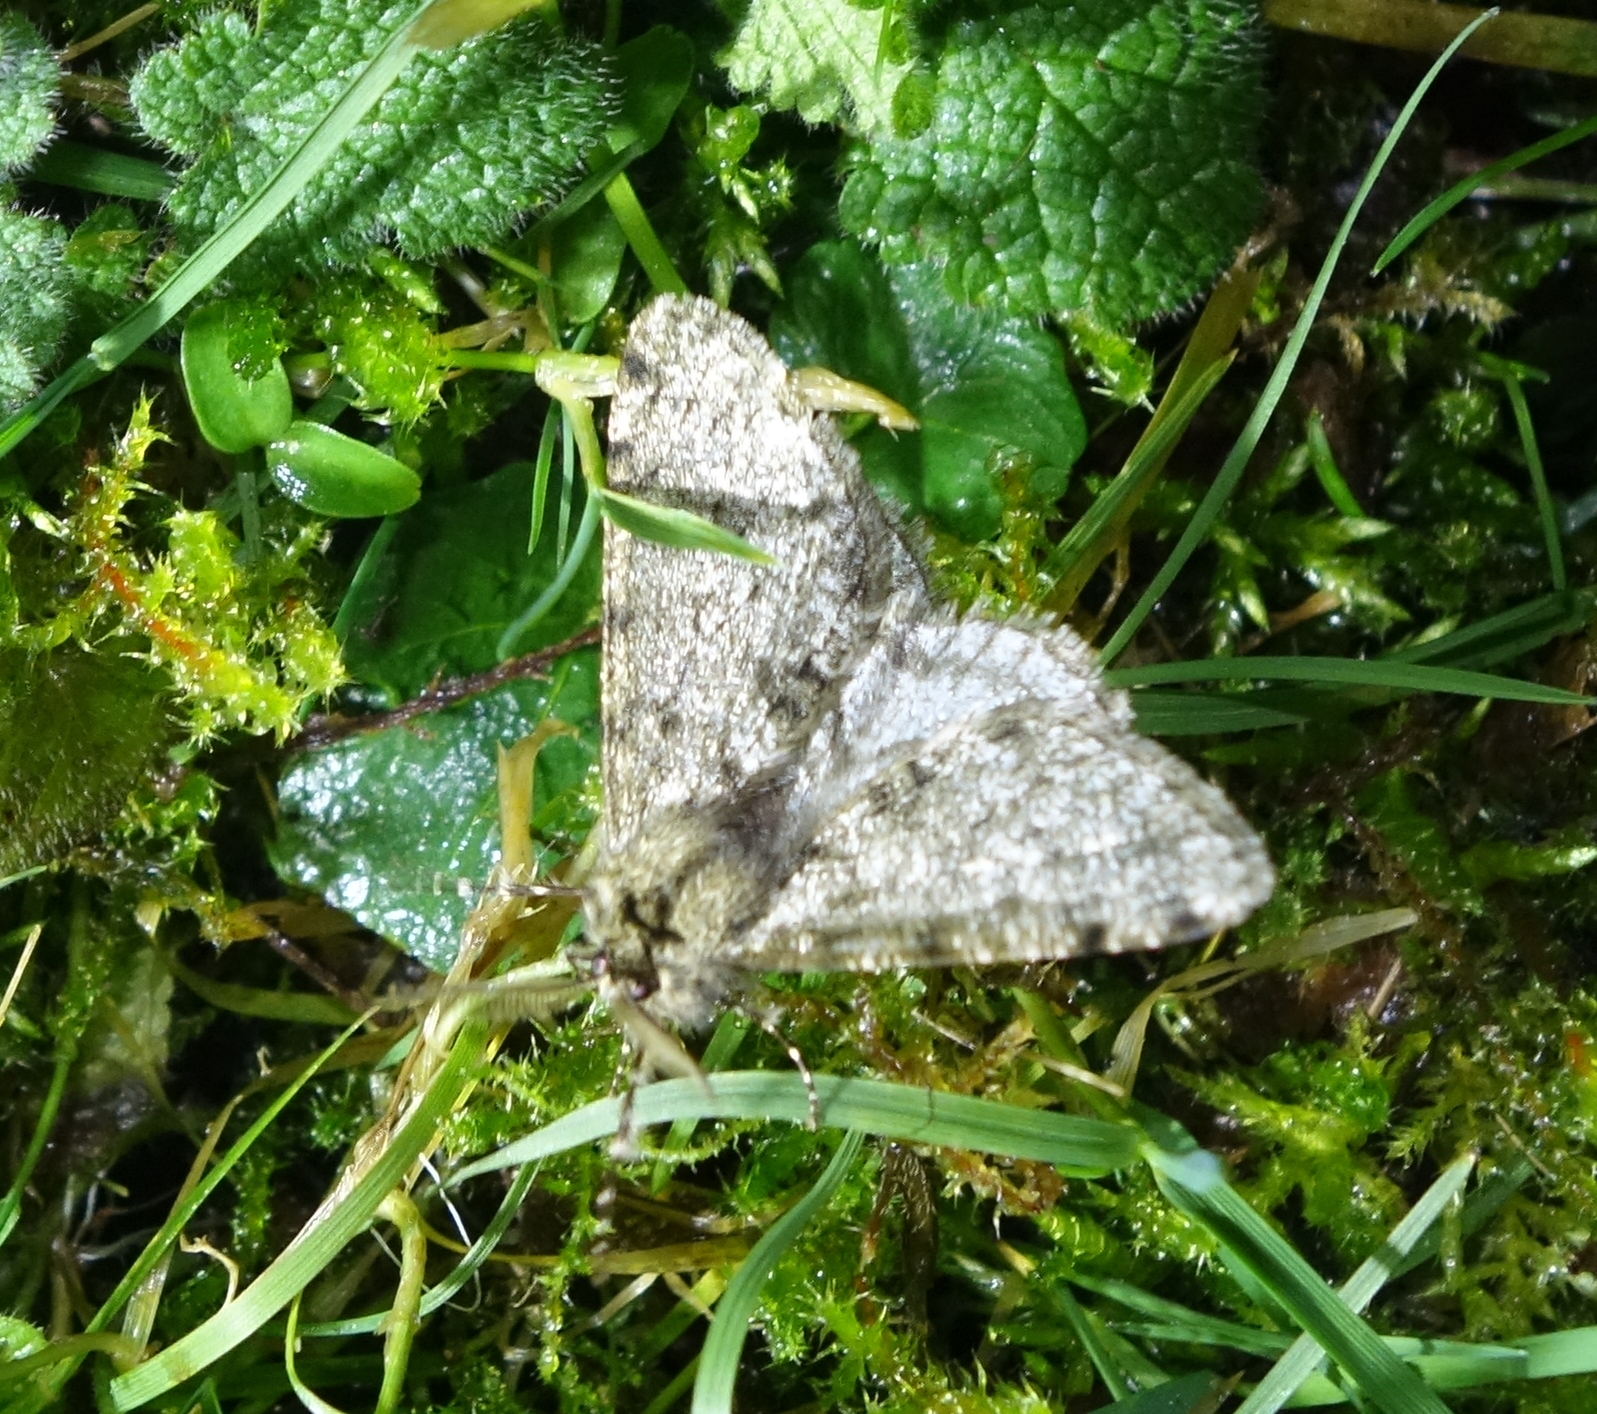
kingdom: Animalia
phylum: Arthropoda
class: Insecta
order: Lepidoptera
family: Geometridae
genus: Phigalia
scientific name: Phigalia pilosaria
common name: Pale brindled beauty
